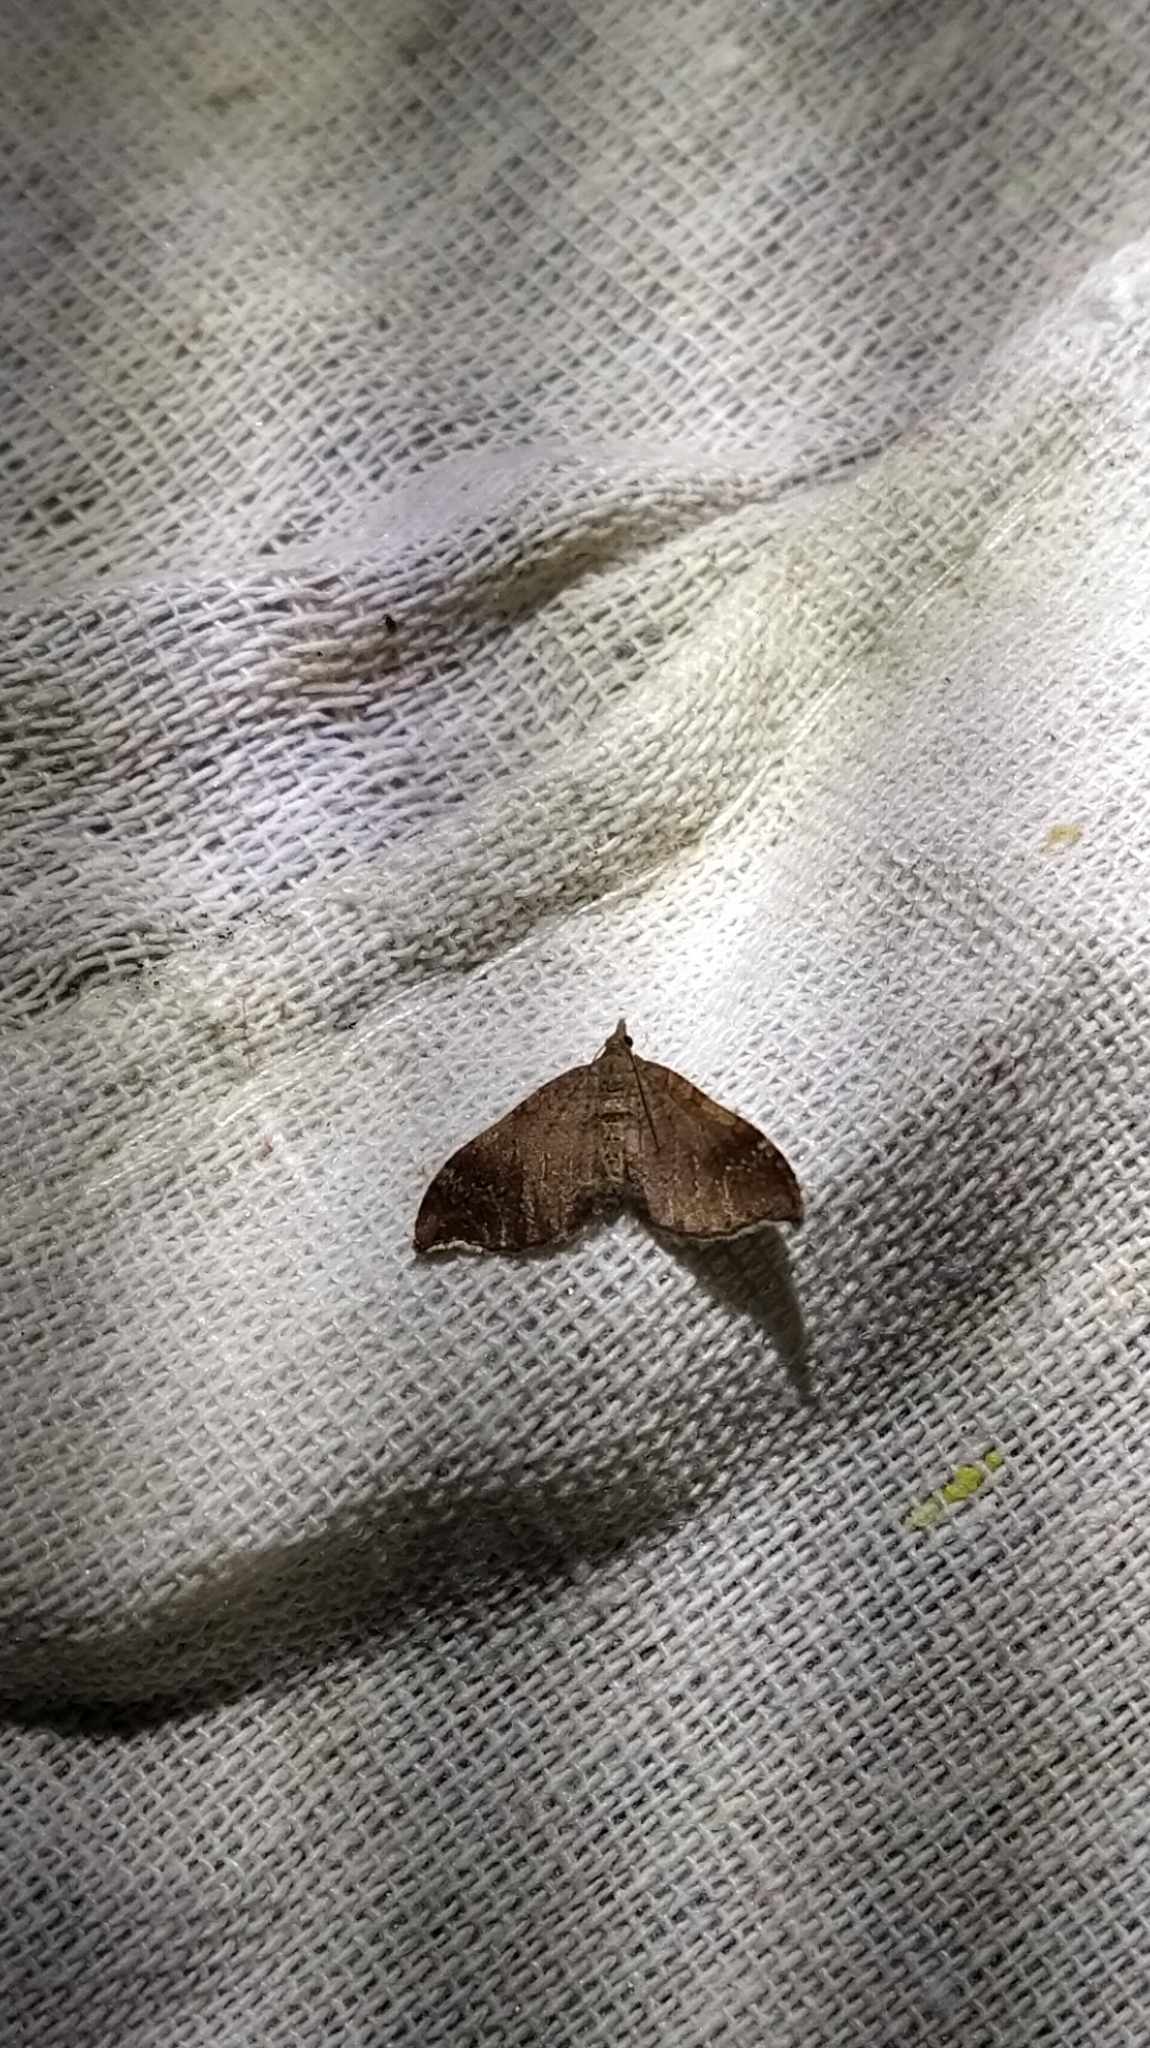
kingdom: Animalia
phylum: Arthropoda
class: Insecta
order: Lepidoptera
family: Geometridae
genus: Homodotis
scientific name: Homodotis megaspilata
